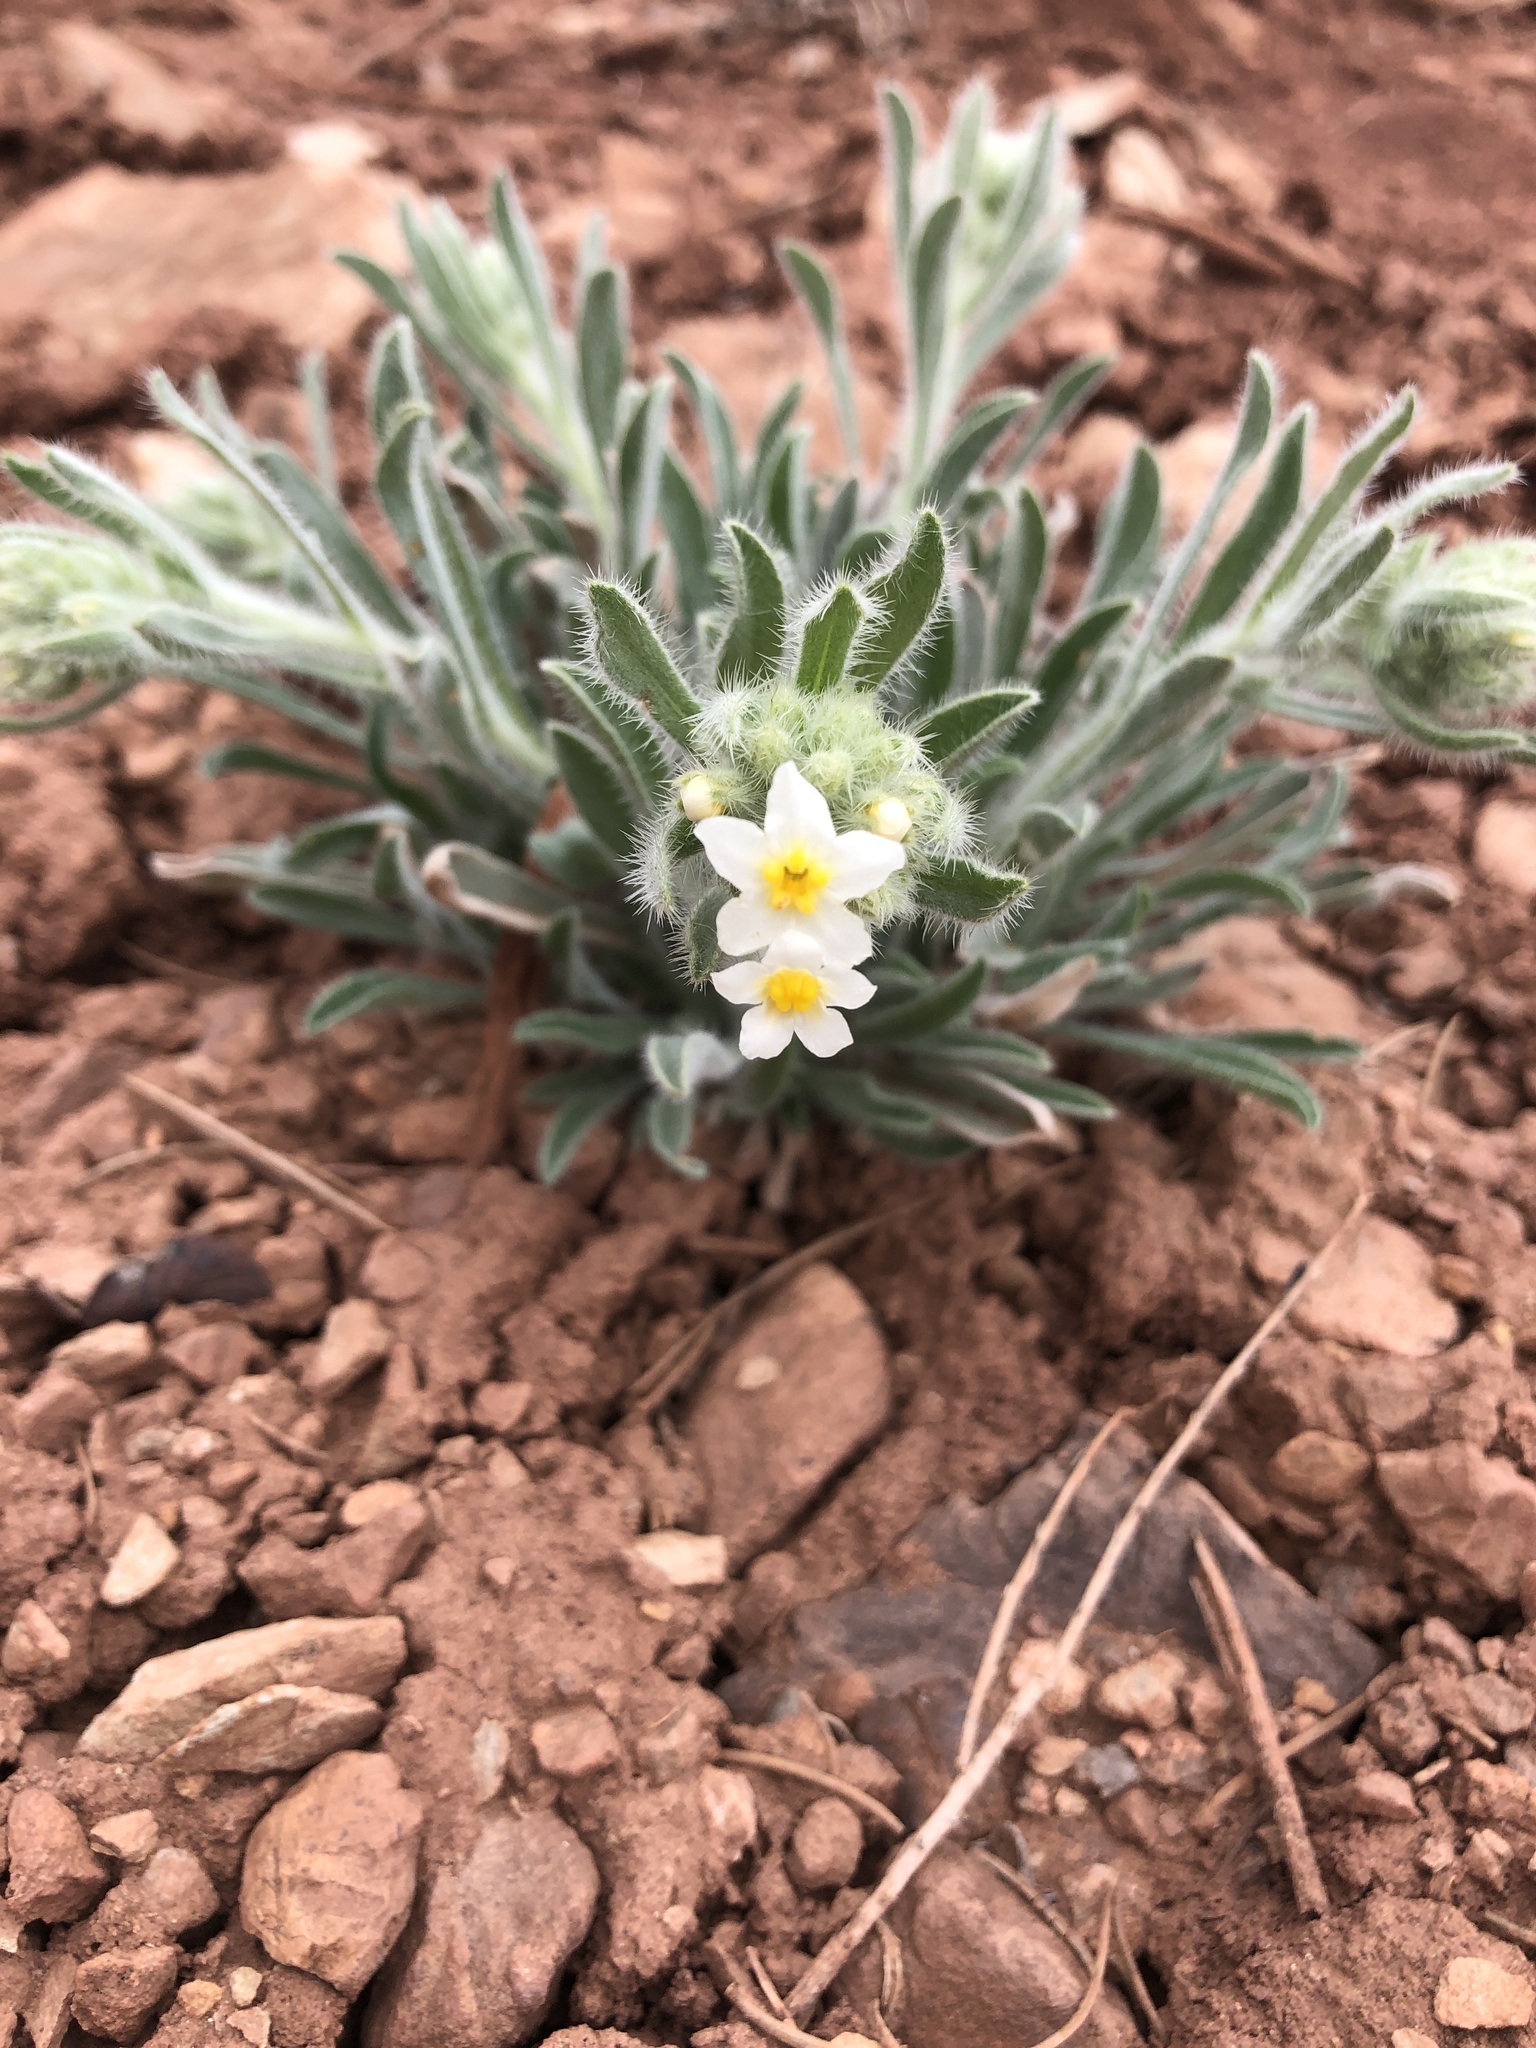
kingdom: Plantae
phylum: Tracheophyta
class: Magnoliopsida
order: Boraginales
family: Boraginaceae
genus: Oreocarya
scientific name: Oreocarya flavoculata
